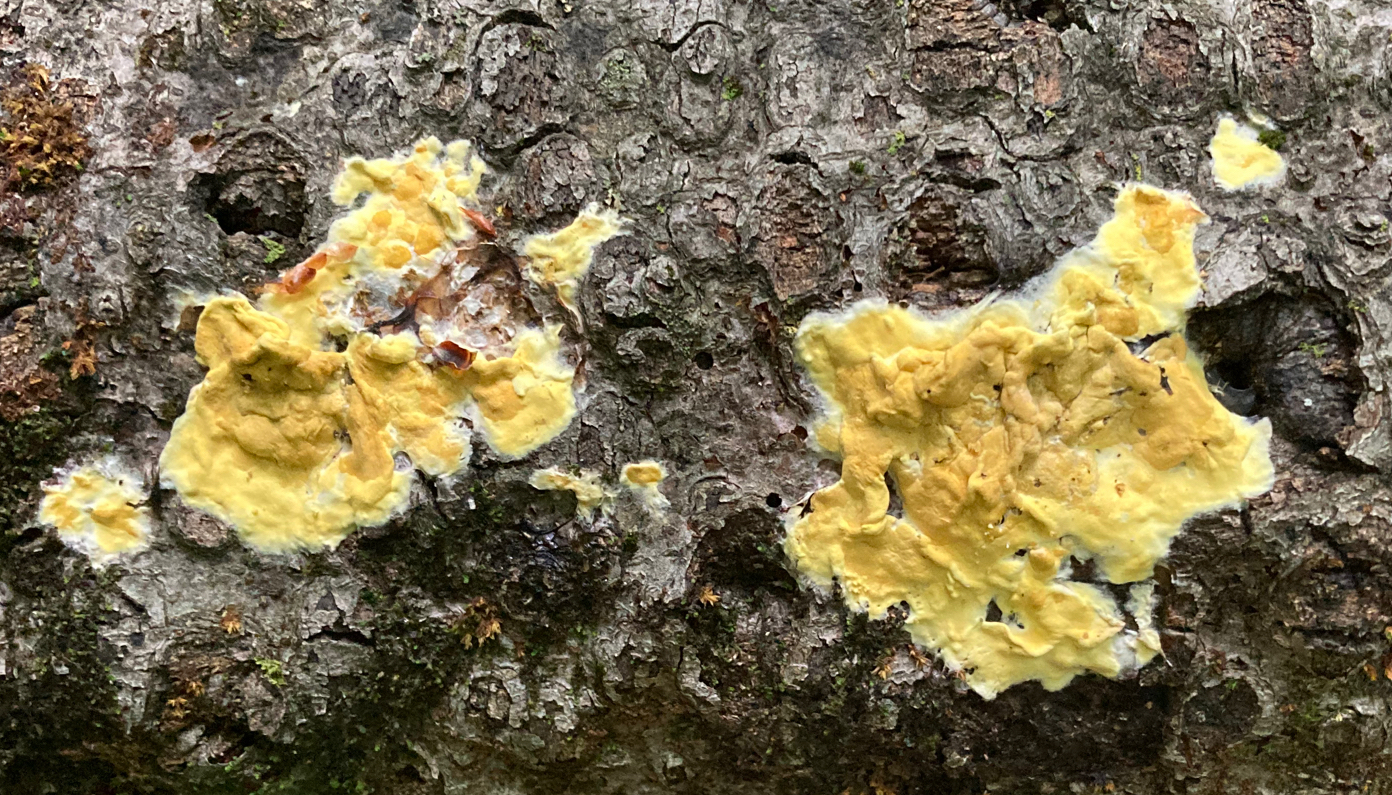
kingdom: Fungi
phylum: Ascomycota
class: Sordariomycetes
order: Hypocreales
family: Hypocreaceae
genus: Trichoderma
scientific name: Trichoderma sulphureum
